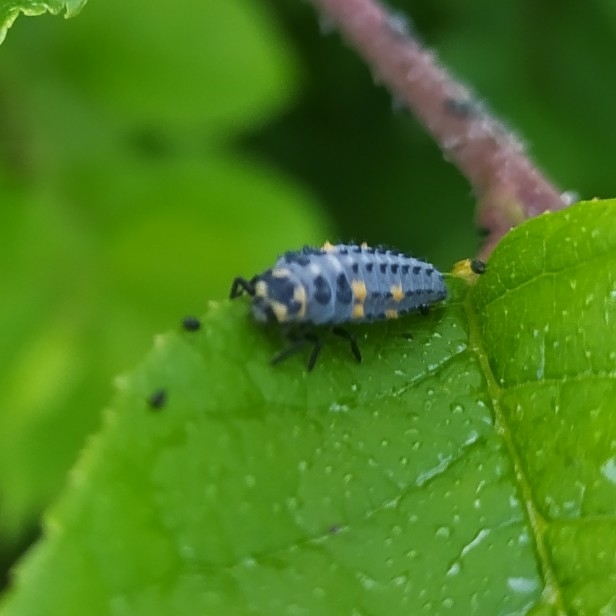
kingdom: Animalia
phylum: Arthropoda
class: Insecta
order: Coleoptera
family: Coccinellidae
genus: Coccinella
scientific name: Coccinella septempunctata
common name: Sevenspotted lady beetle
